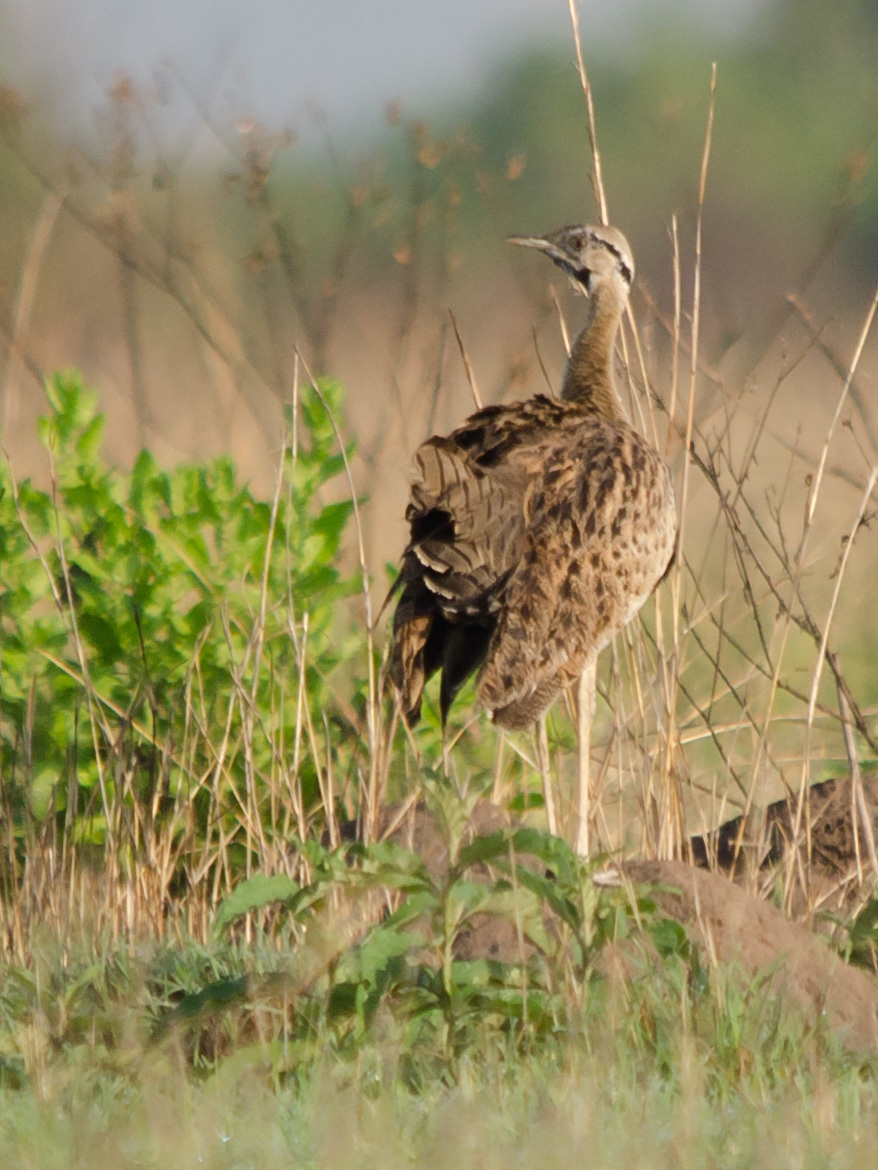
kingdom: Animalia
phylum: Chordata
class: Aves
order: Otidiformes
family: Otididae
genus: Lissotis
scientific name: Lissotis melanogaster
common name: Black-bellied bustard
